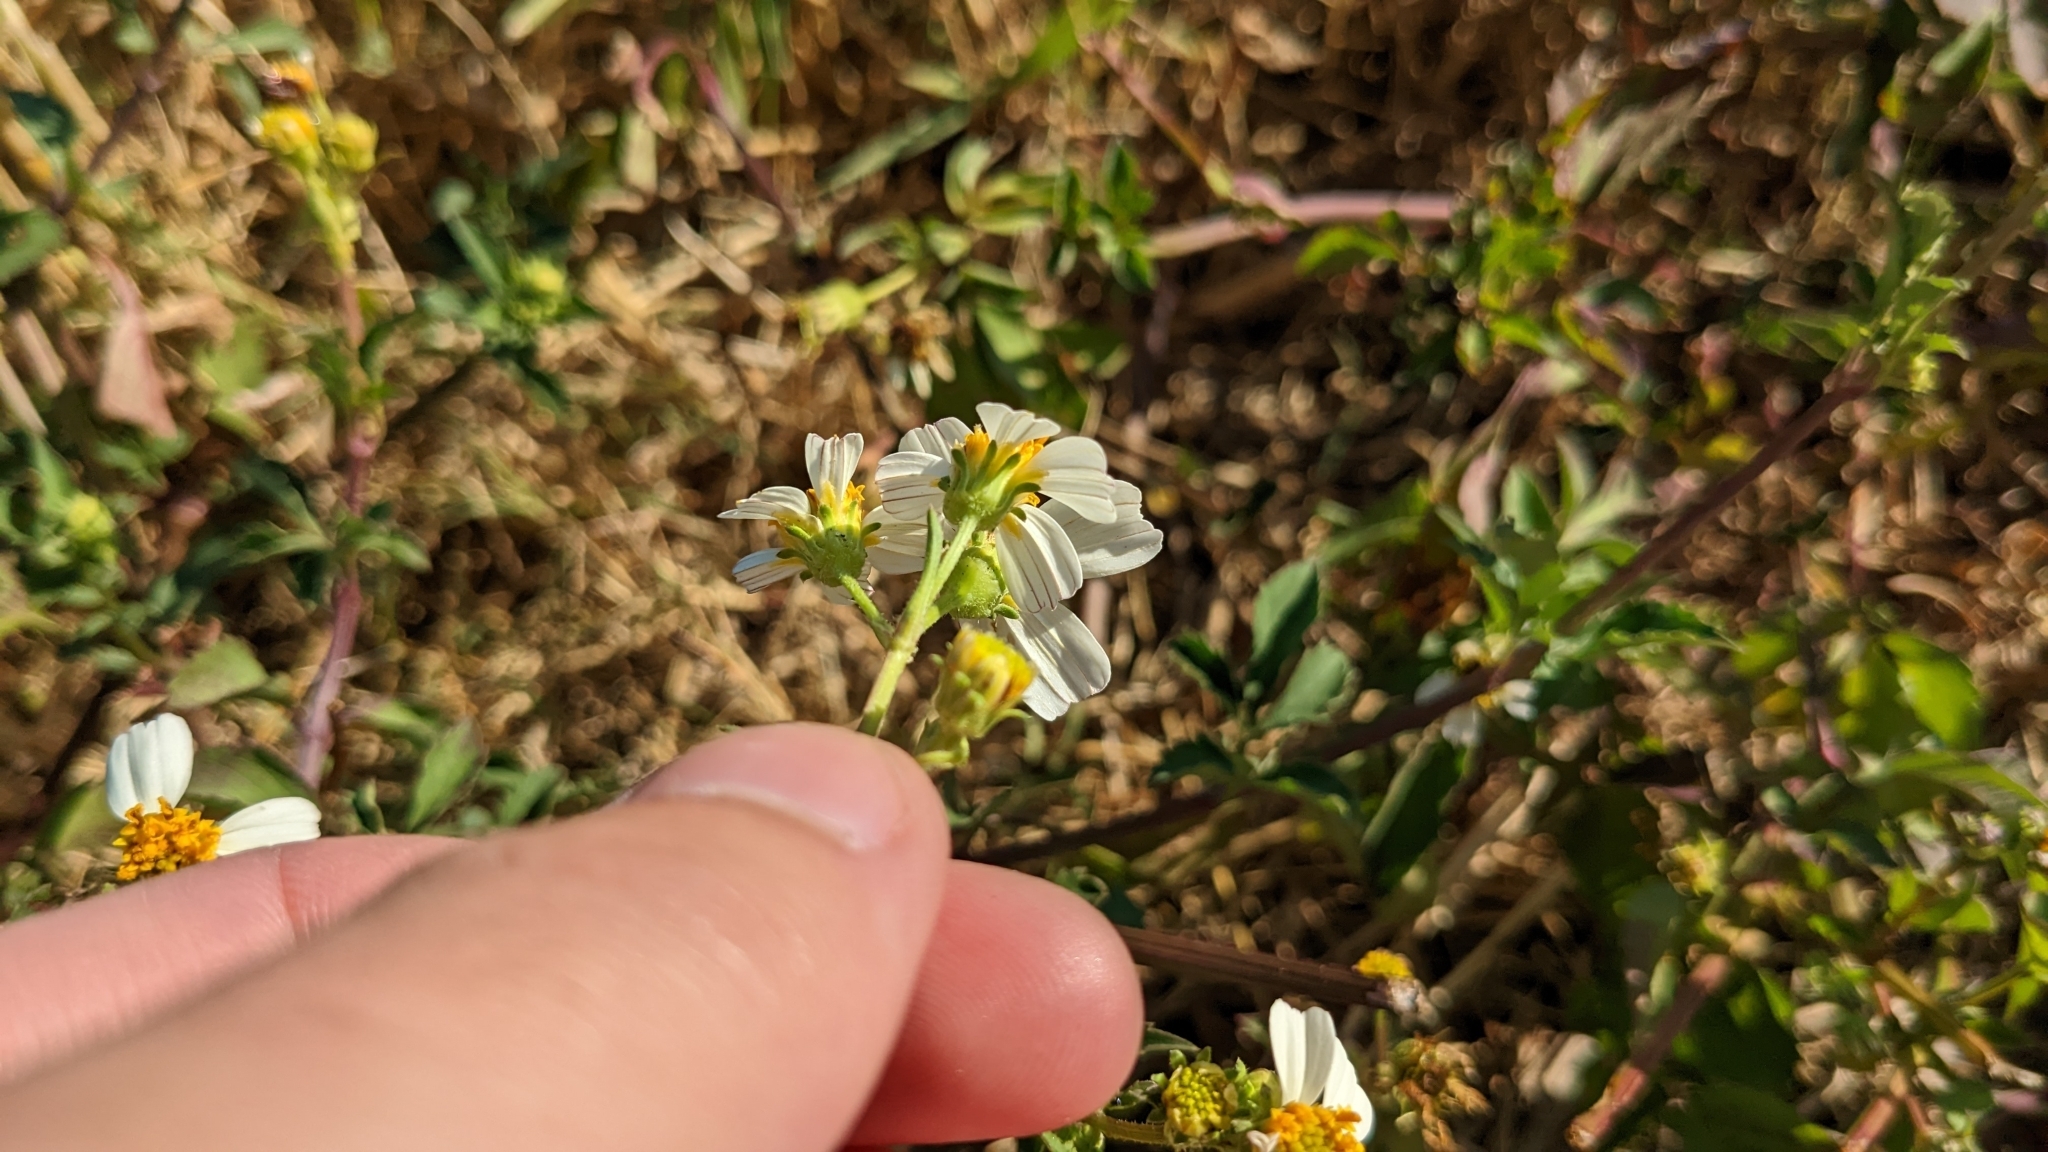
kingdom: Plantae
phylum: Tracheophyta
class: Magnoliopsida
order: Asterales
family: Asteraceae
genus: Bidens
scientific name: Bidens alba
